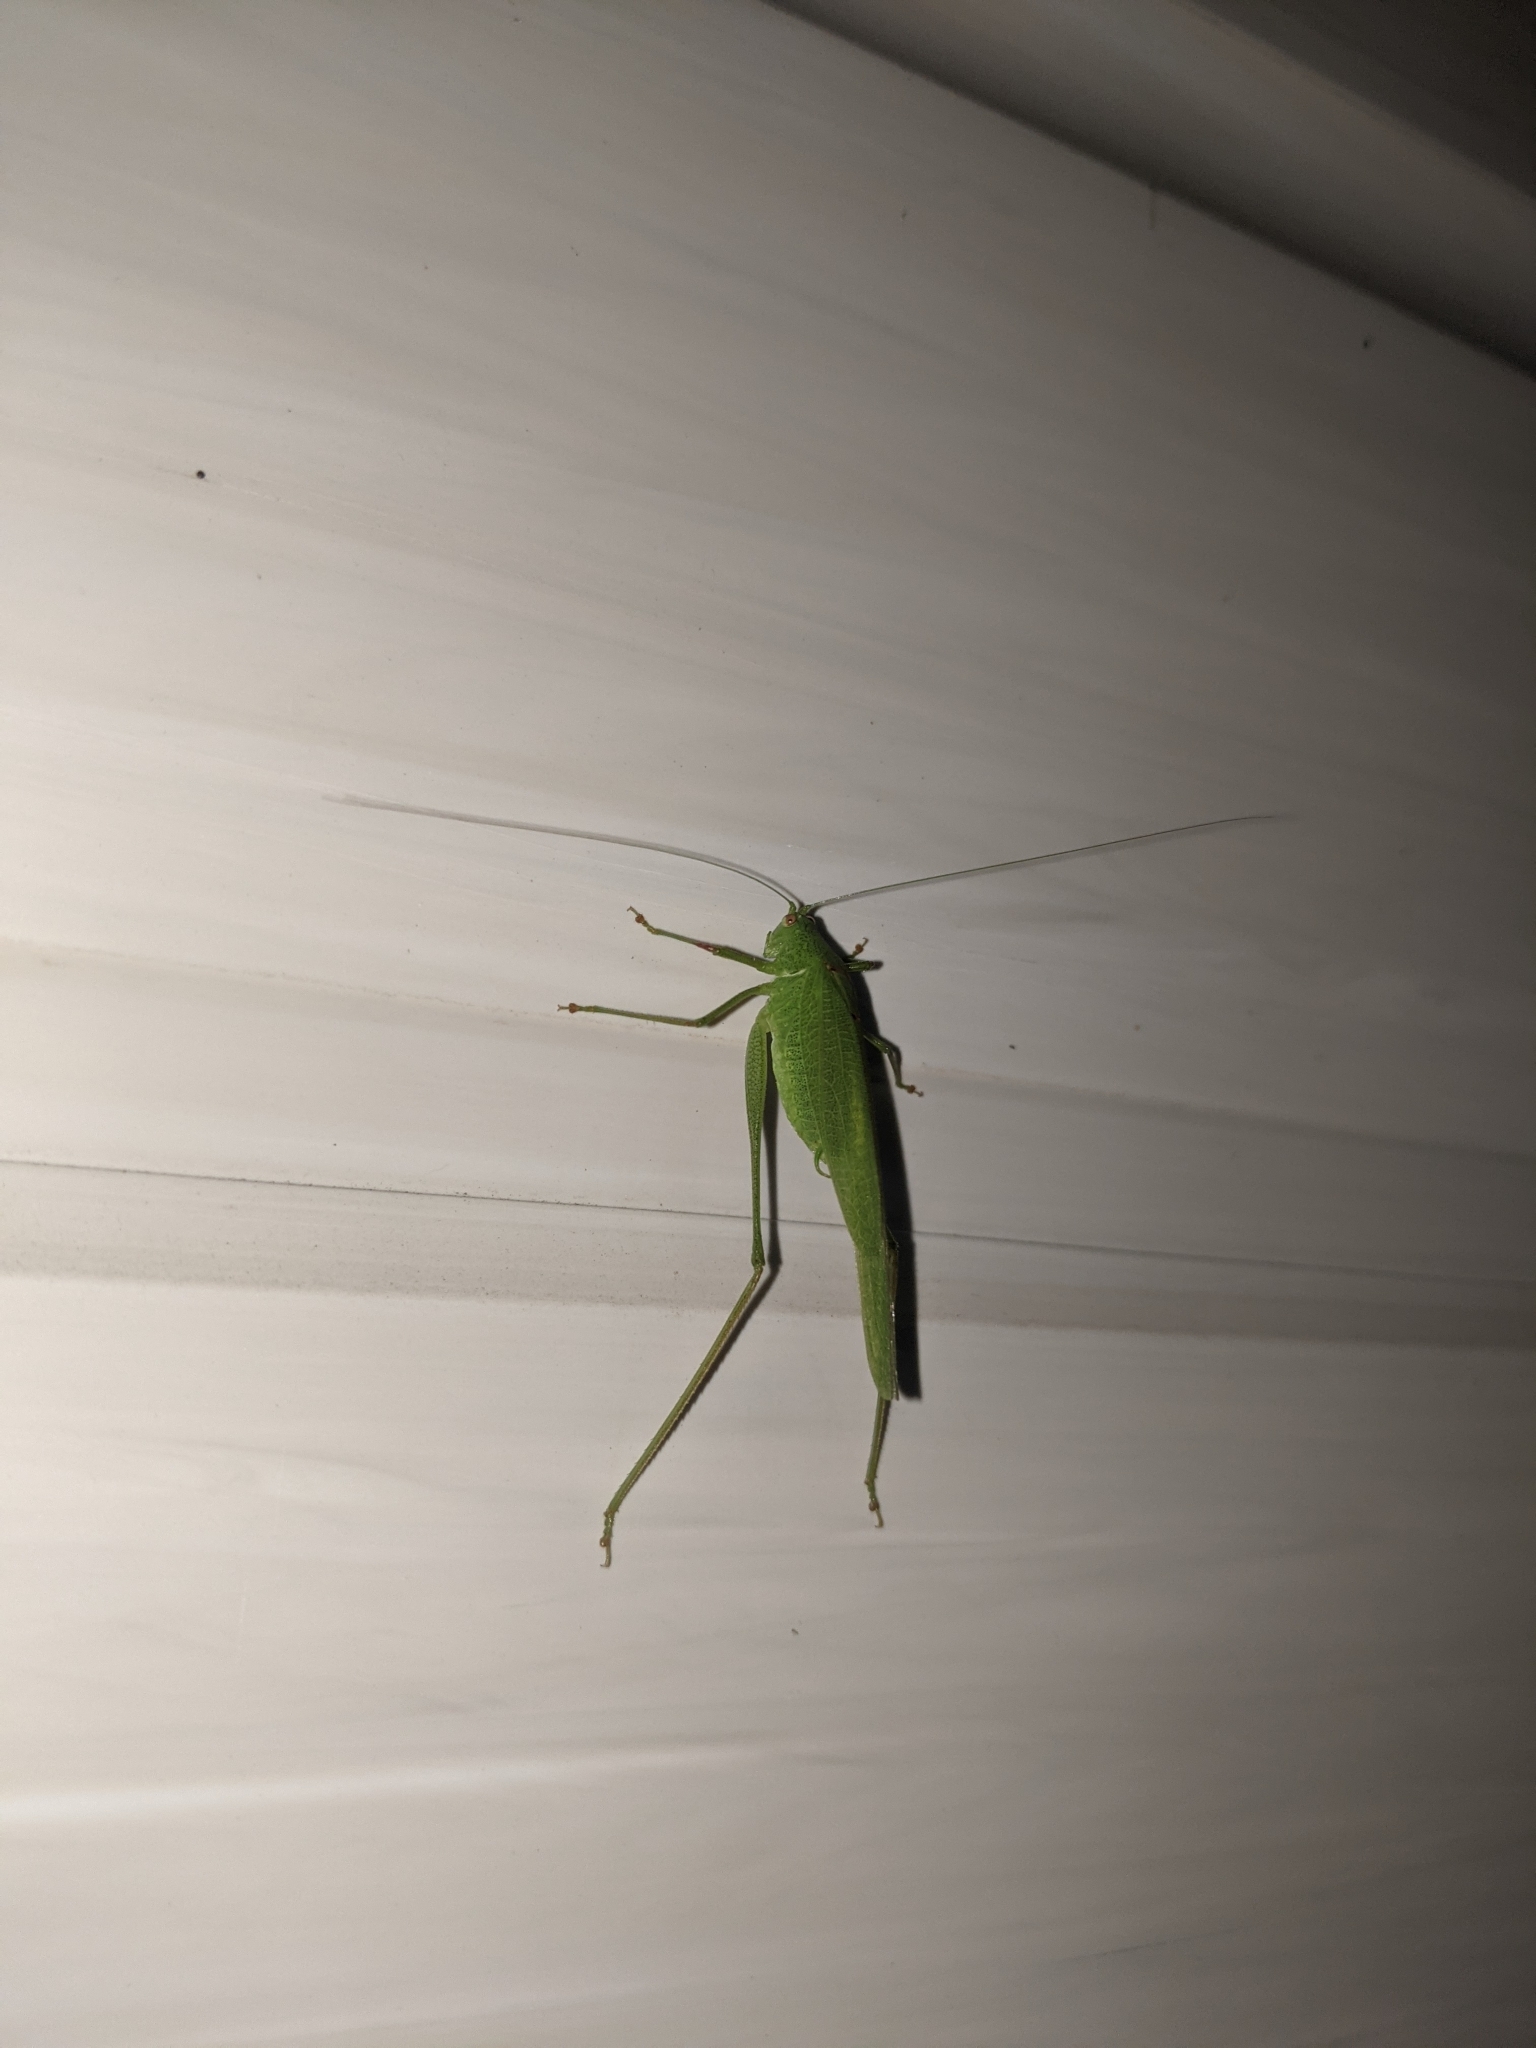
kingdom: Animalia
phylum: Arthropoda
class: Insecta
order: Orthoptera
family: Tettigoniidae
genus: Phaneroptera
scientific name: Phaneroptera nana
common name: Southern sickle bush-cricket
